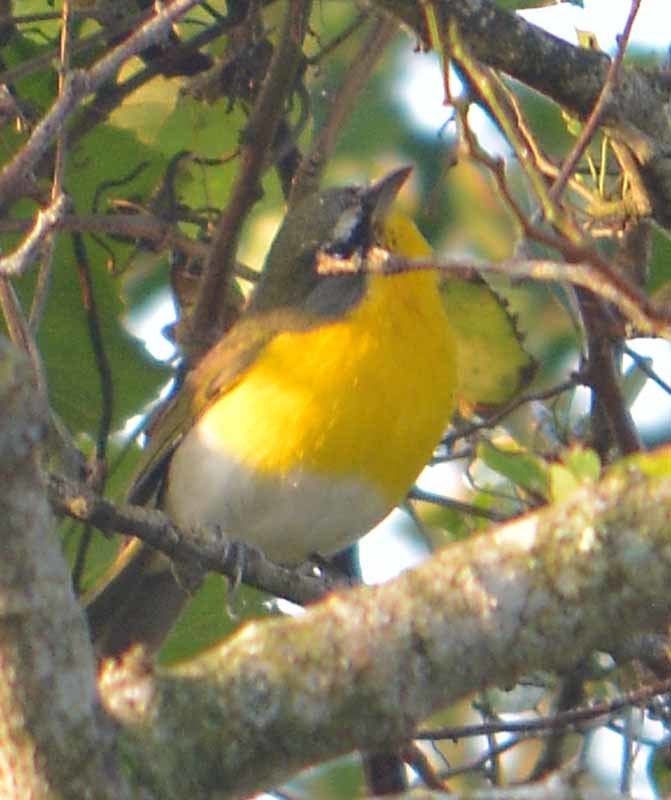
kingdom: Animalia
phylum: Chordata
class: Aves
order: Passeriformes
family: Parulidae
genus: Icteria
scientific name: Icteria virens
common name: Yellow-breasted chat
